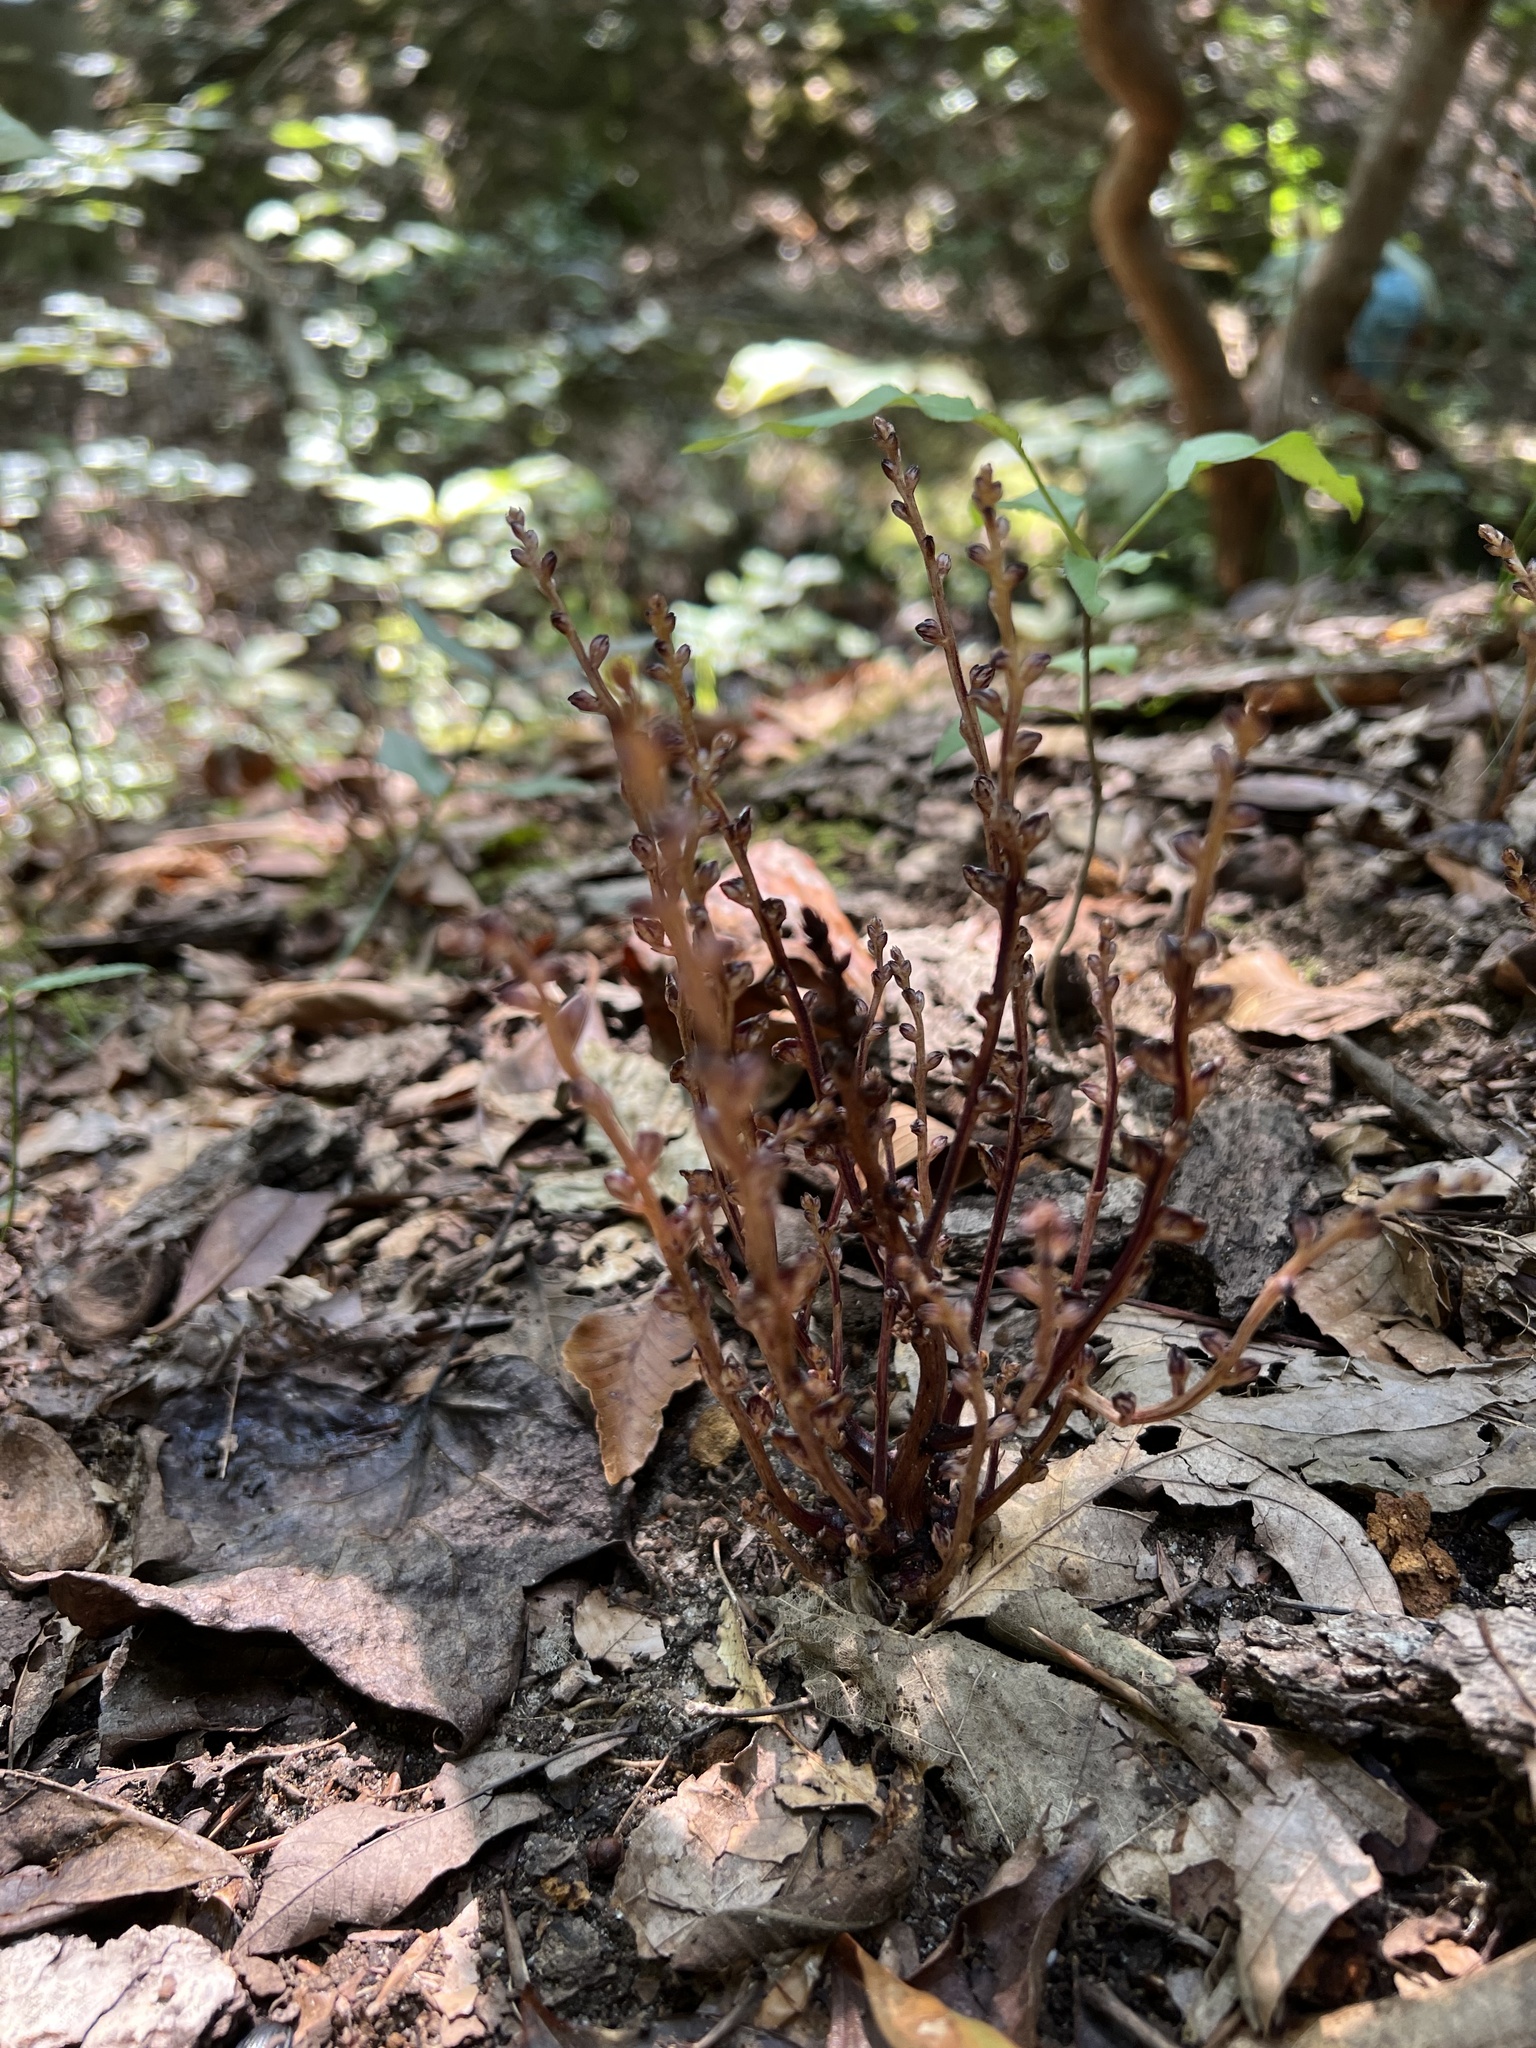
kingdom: Plantae
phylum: Tracheophyta
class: Magnoliopsida
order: Lamiales
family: Orobanchaceae
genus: Epifagus
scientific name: Epifagus virginiana
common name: Beechdrops
